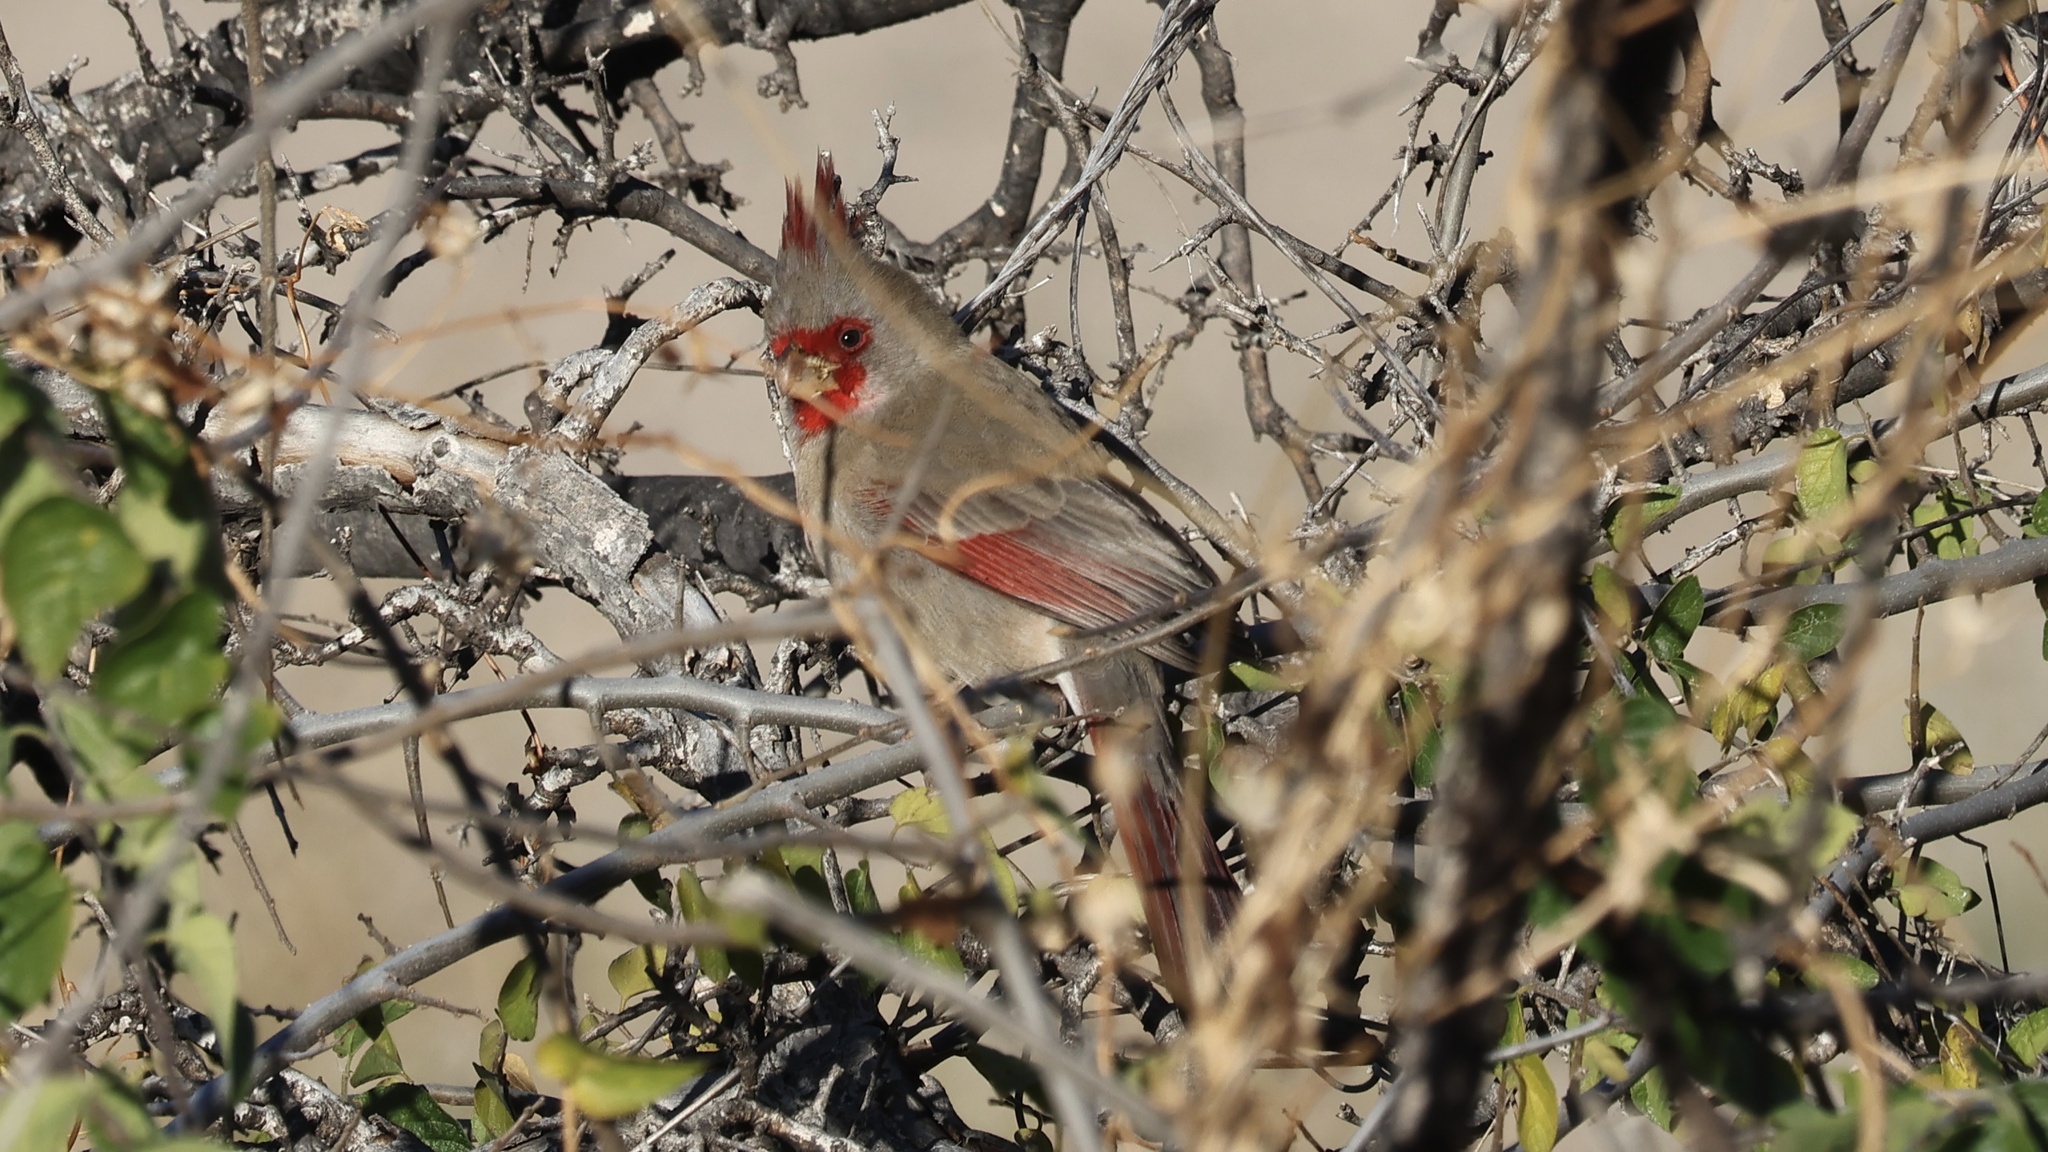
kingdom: Animalia
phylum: Chordata
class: Aves
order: Passeriformes
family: Cardinalidae
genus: Cardinalis
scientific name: Cardinalis sinuatus
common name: Pyrrhuloxia
